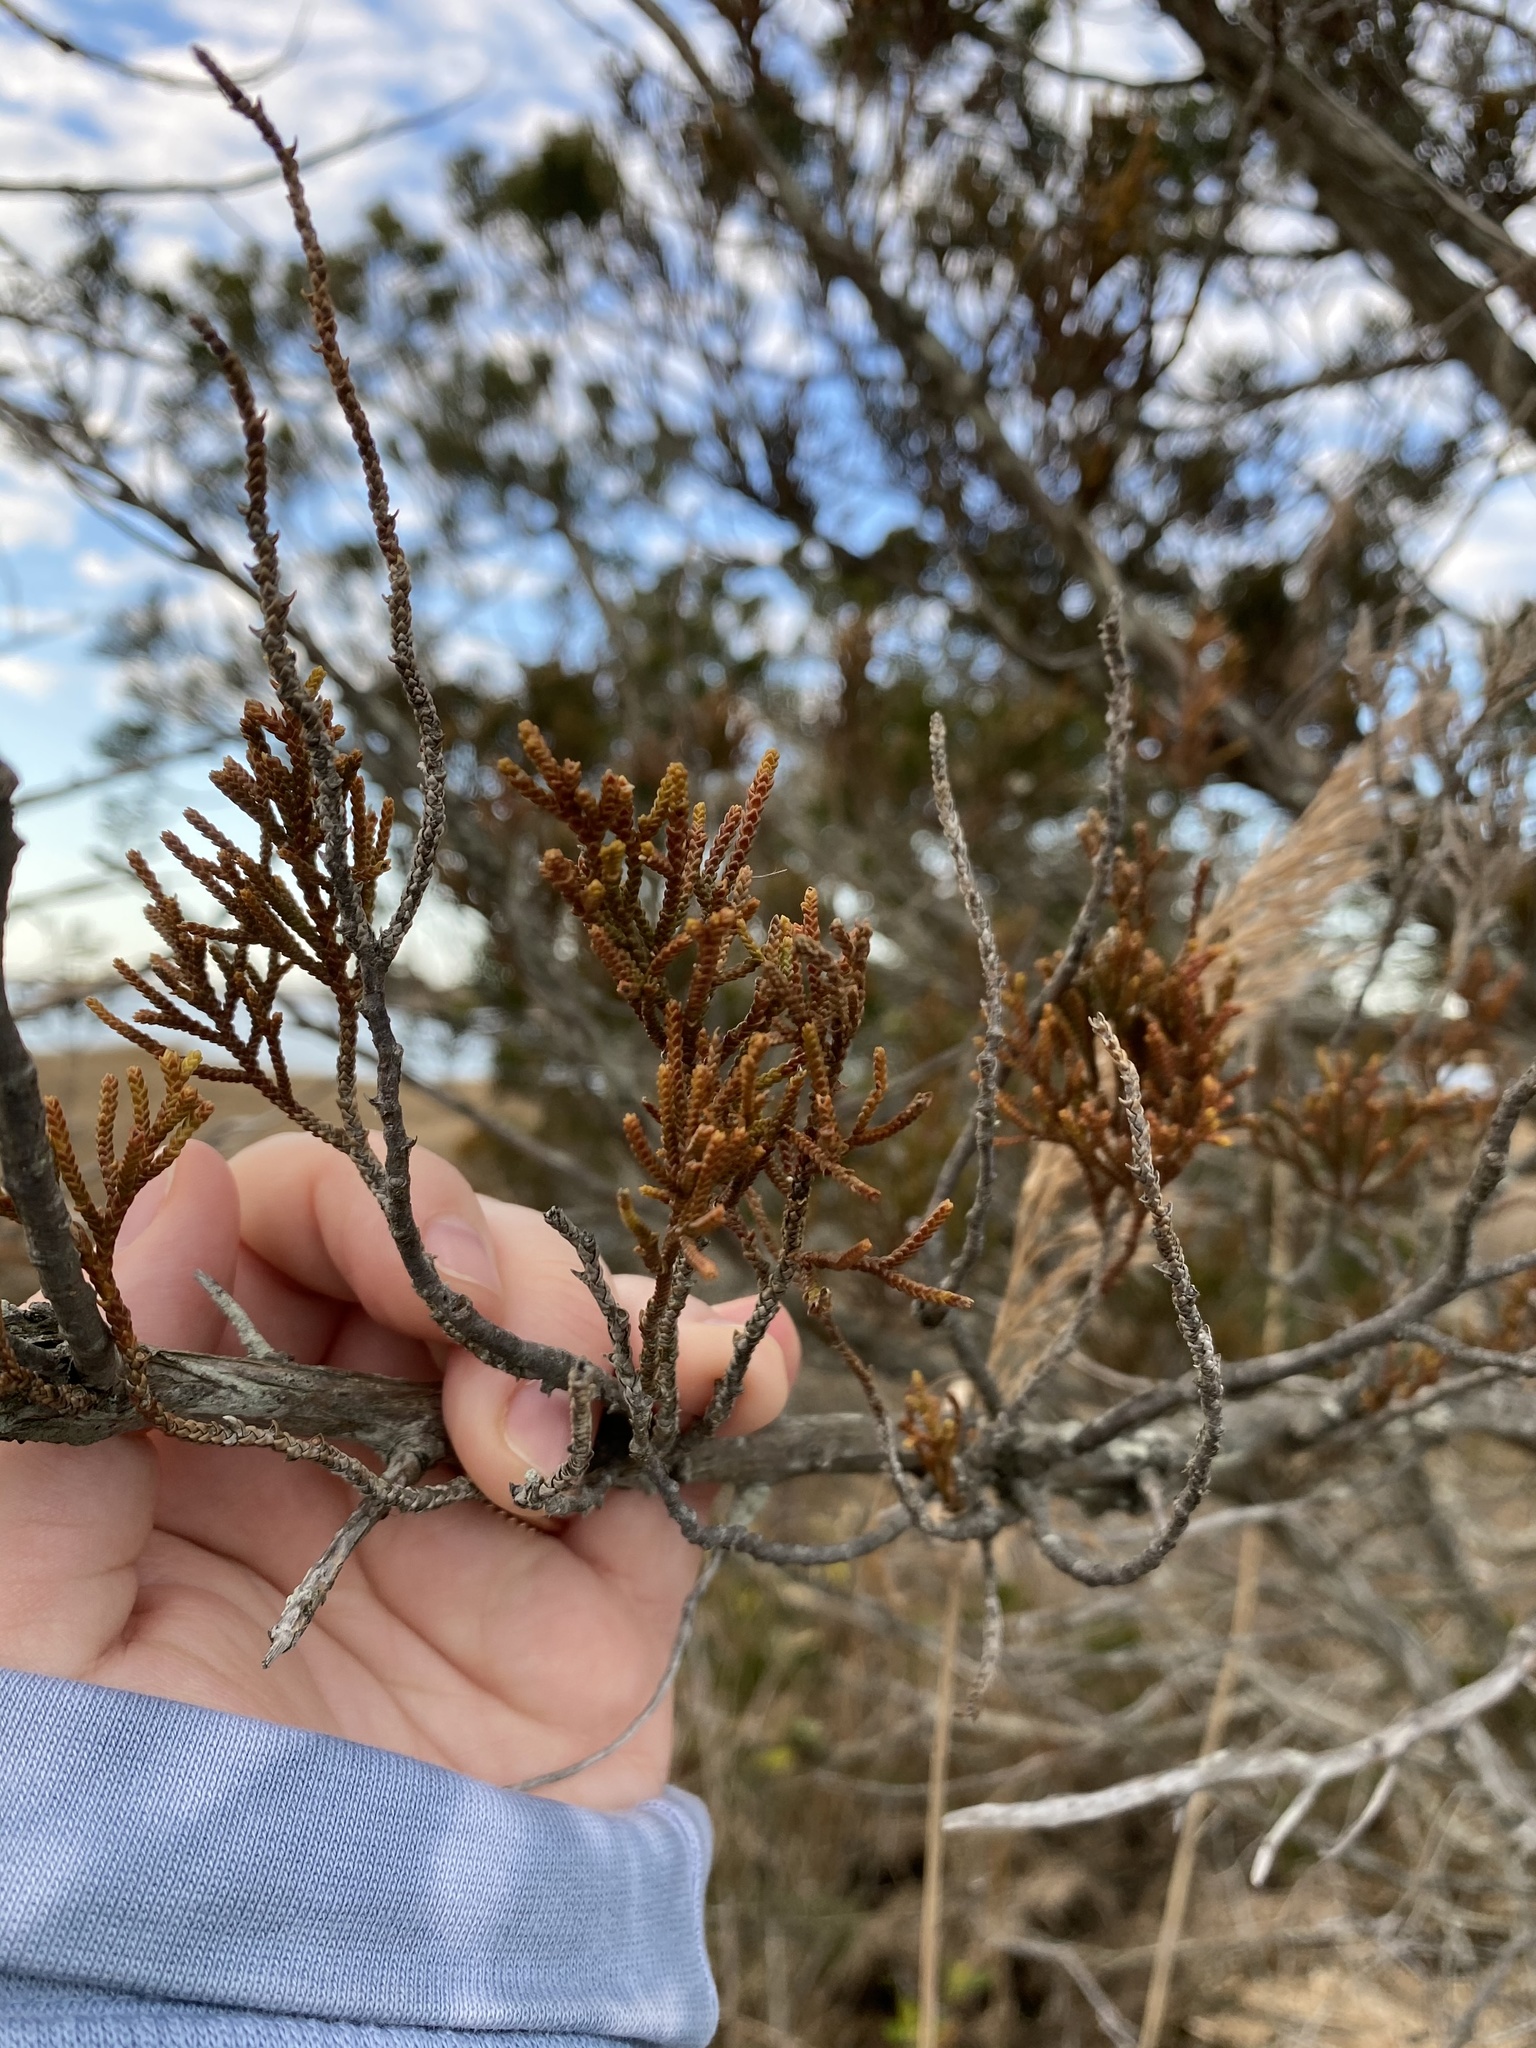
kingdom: Plantae
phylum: Tracheophyta
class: Pinopsida
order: Pinales
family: Cupressaceae
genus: Chamaecyparis
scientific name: Chamaecyparis thyoides
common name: Atlantic white cedar
